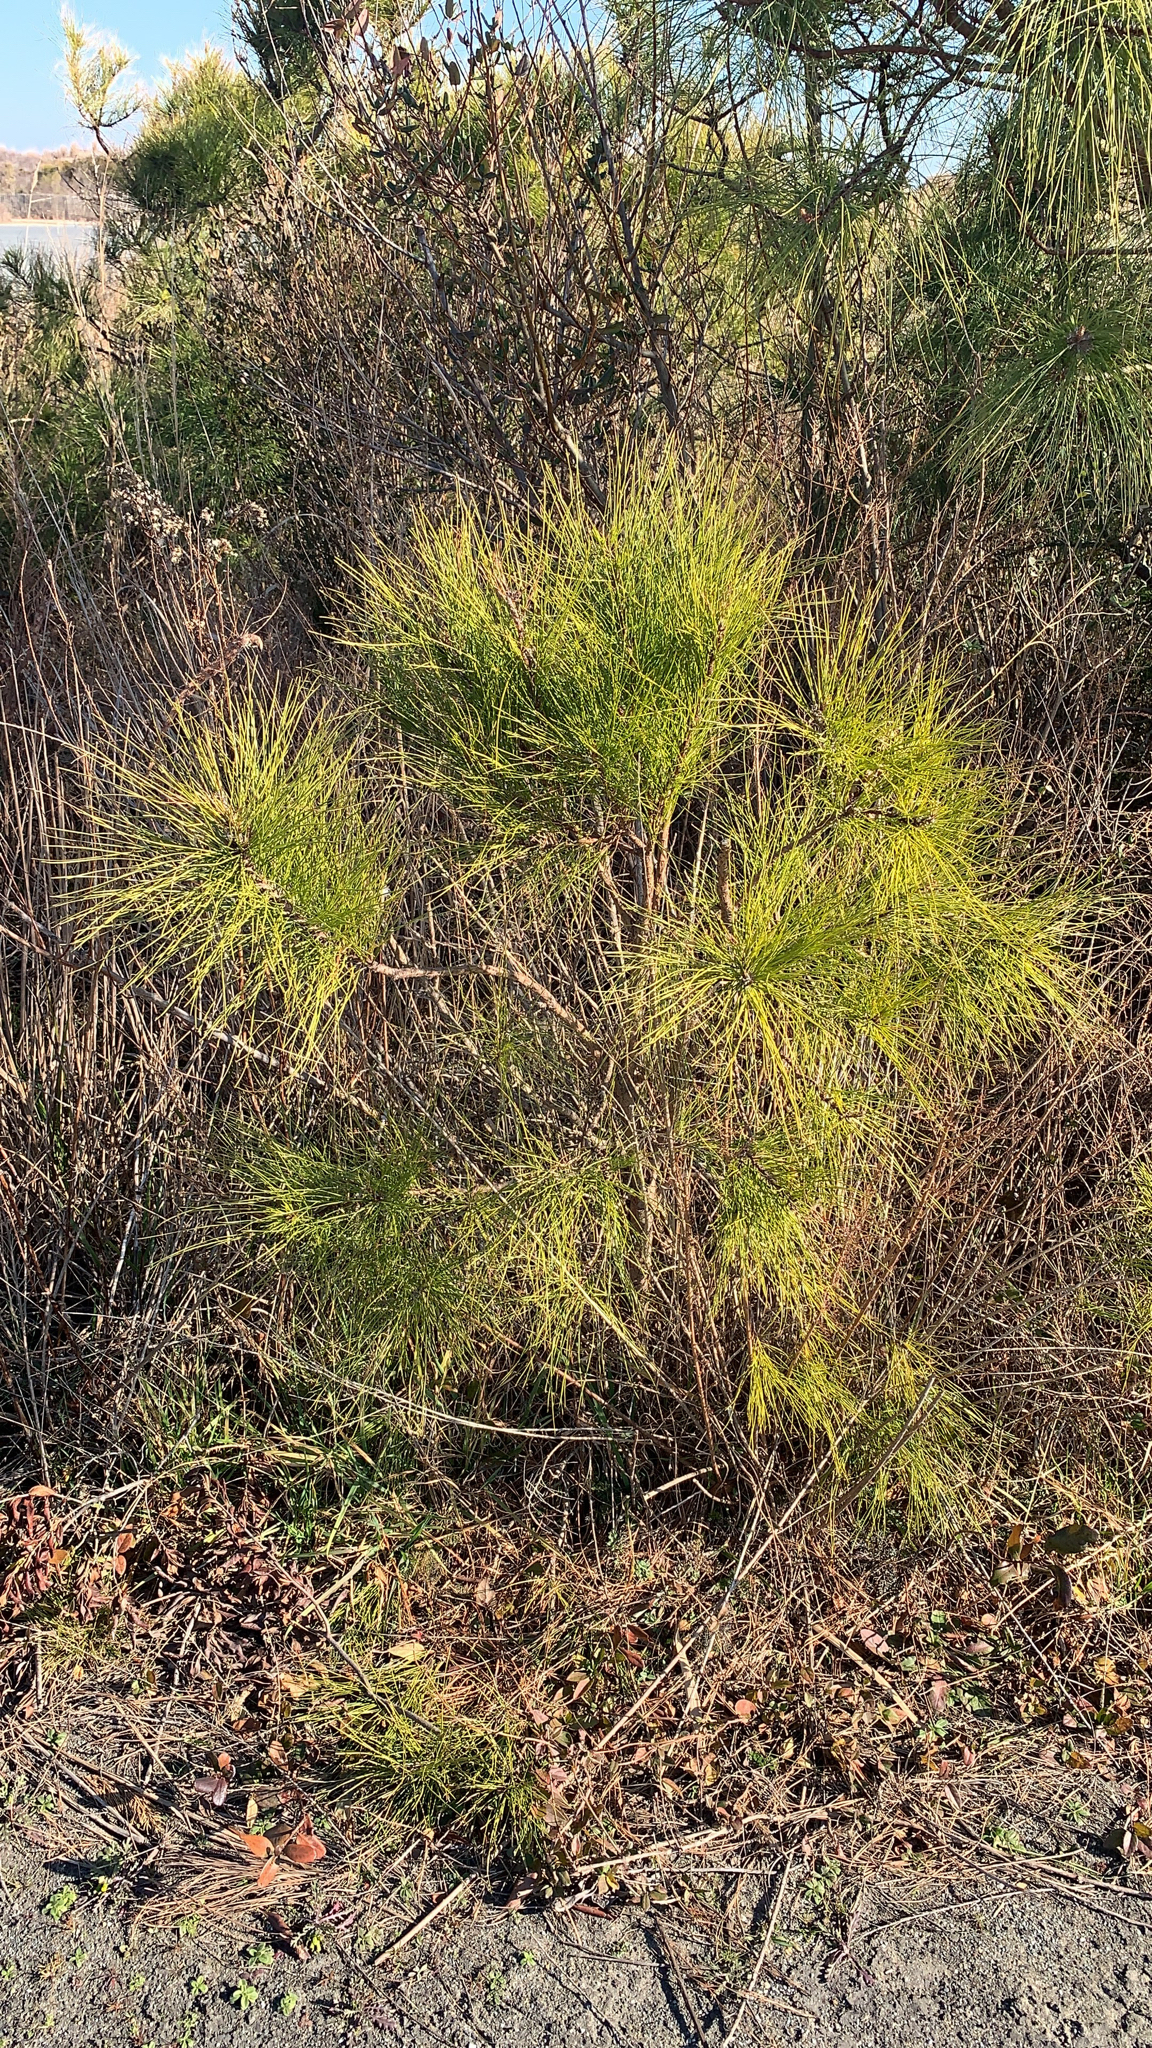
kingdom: Plantae
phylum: Tracheophyta
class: Pinopsida
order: Pinales
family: Pinaceae
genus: Pinus
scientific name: Pinus
